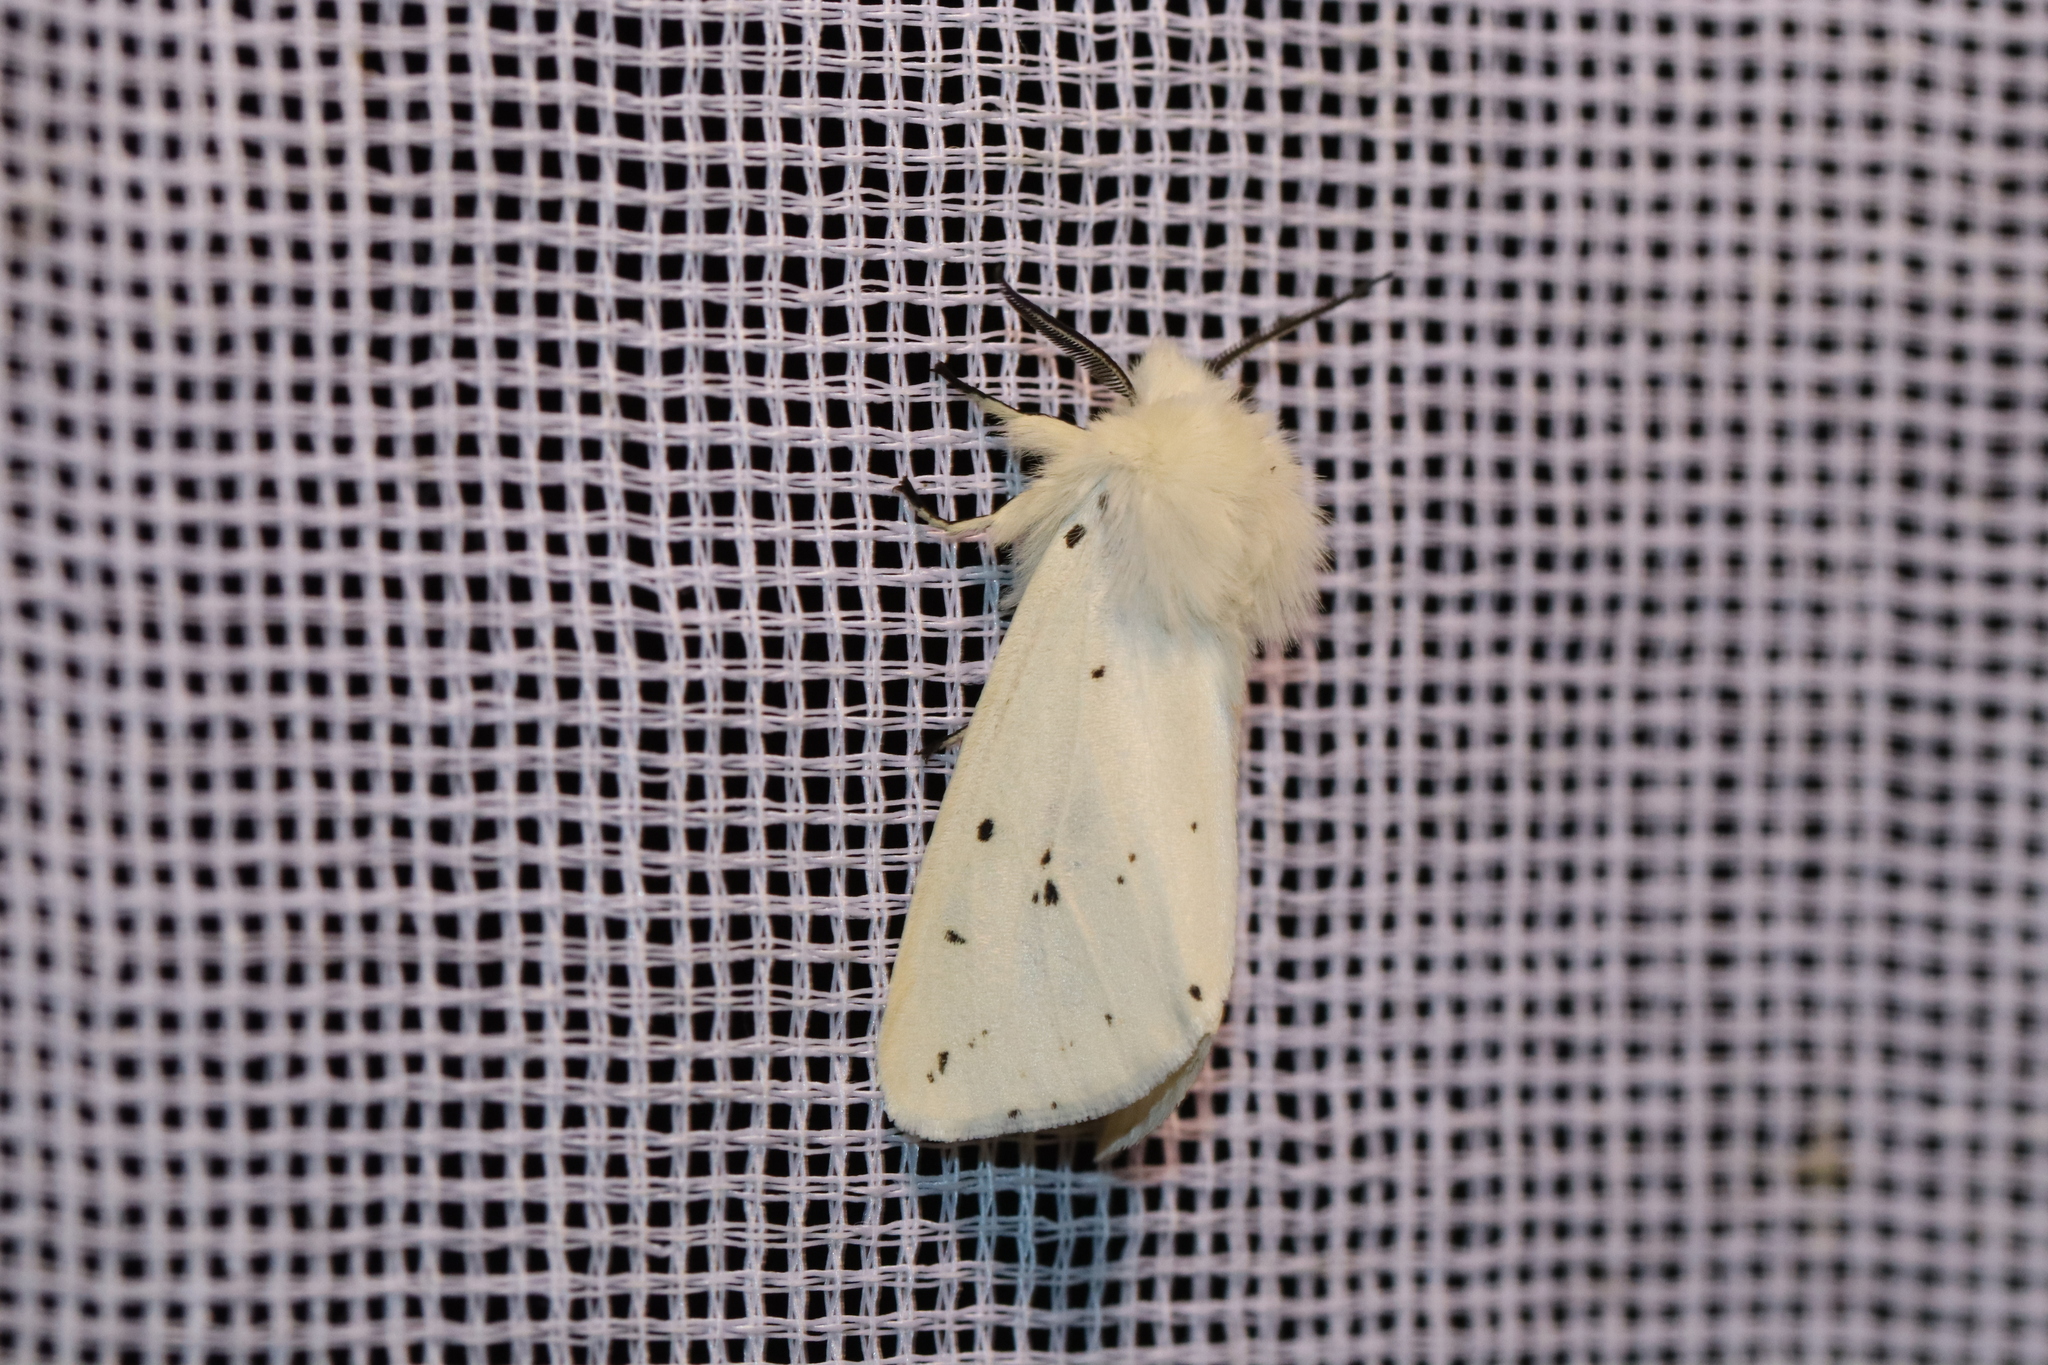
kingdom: Animalia
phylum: Arthropoda
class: Insecta
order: Lepidoptera
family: Erebidae
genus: Spilosoma
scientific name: Spilosoma lubricipeda
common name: White ermine
